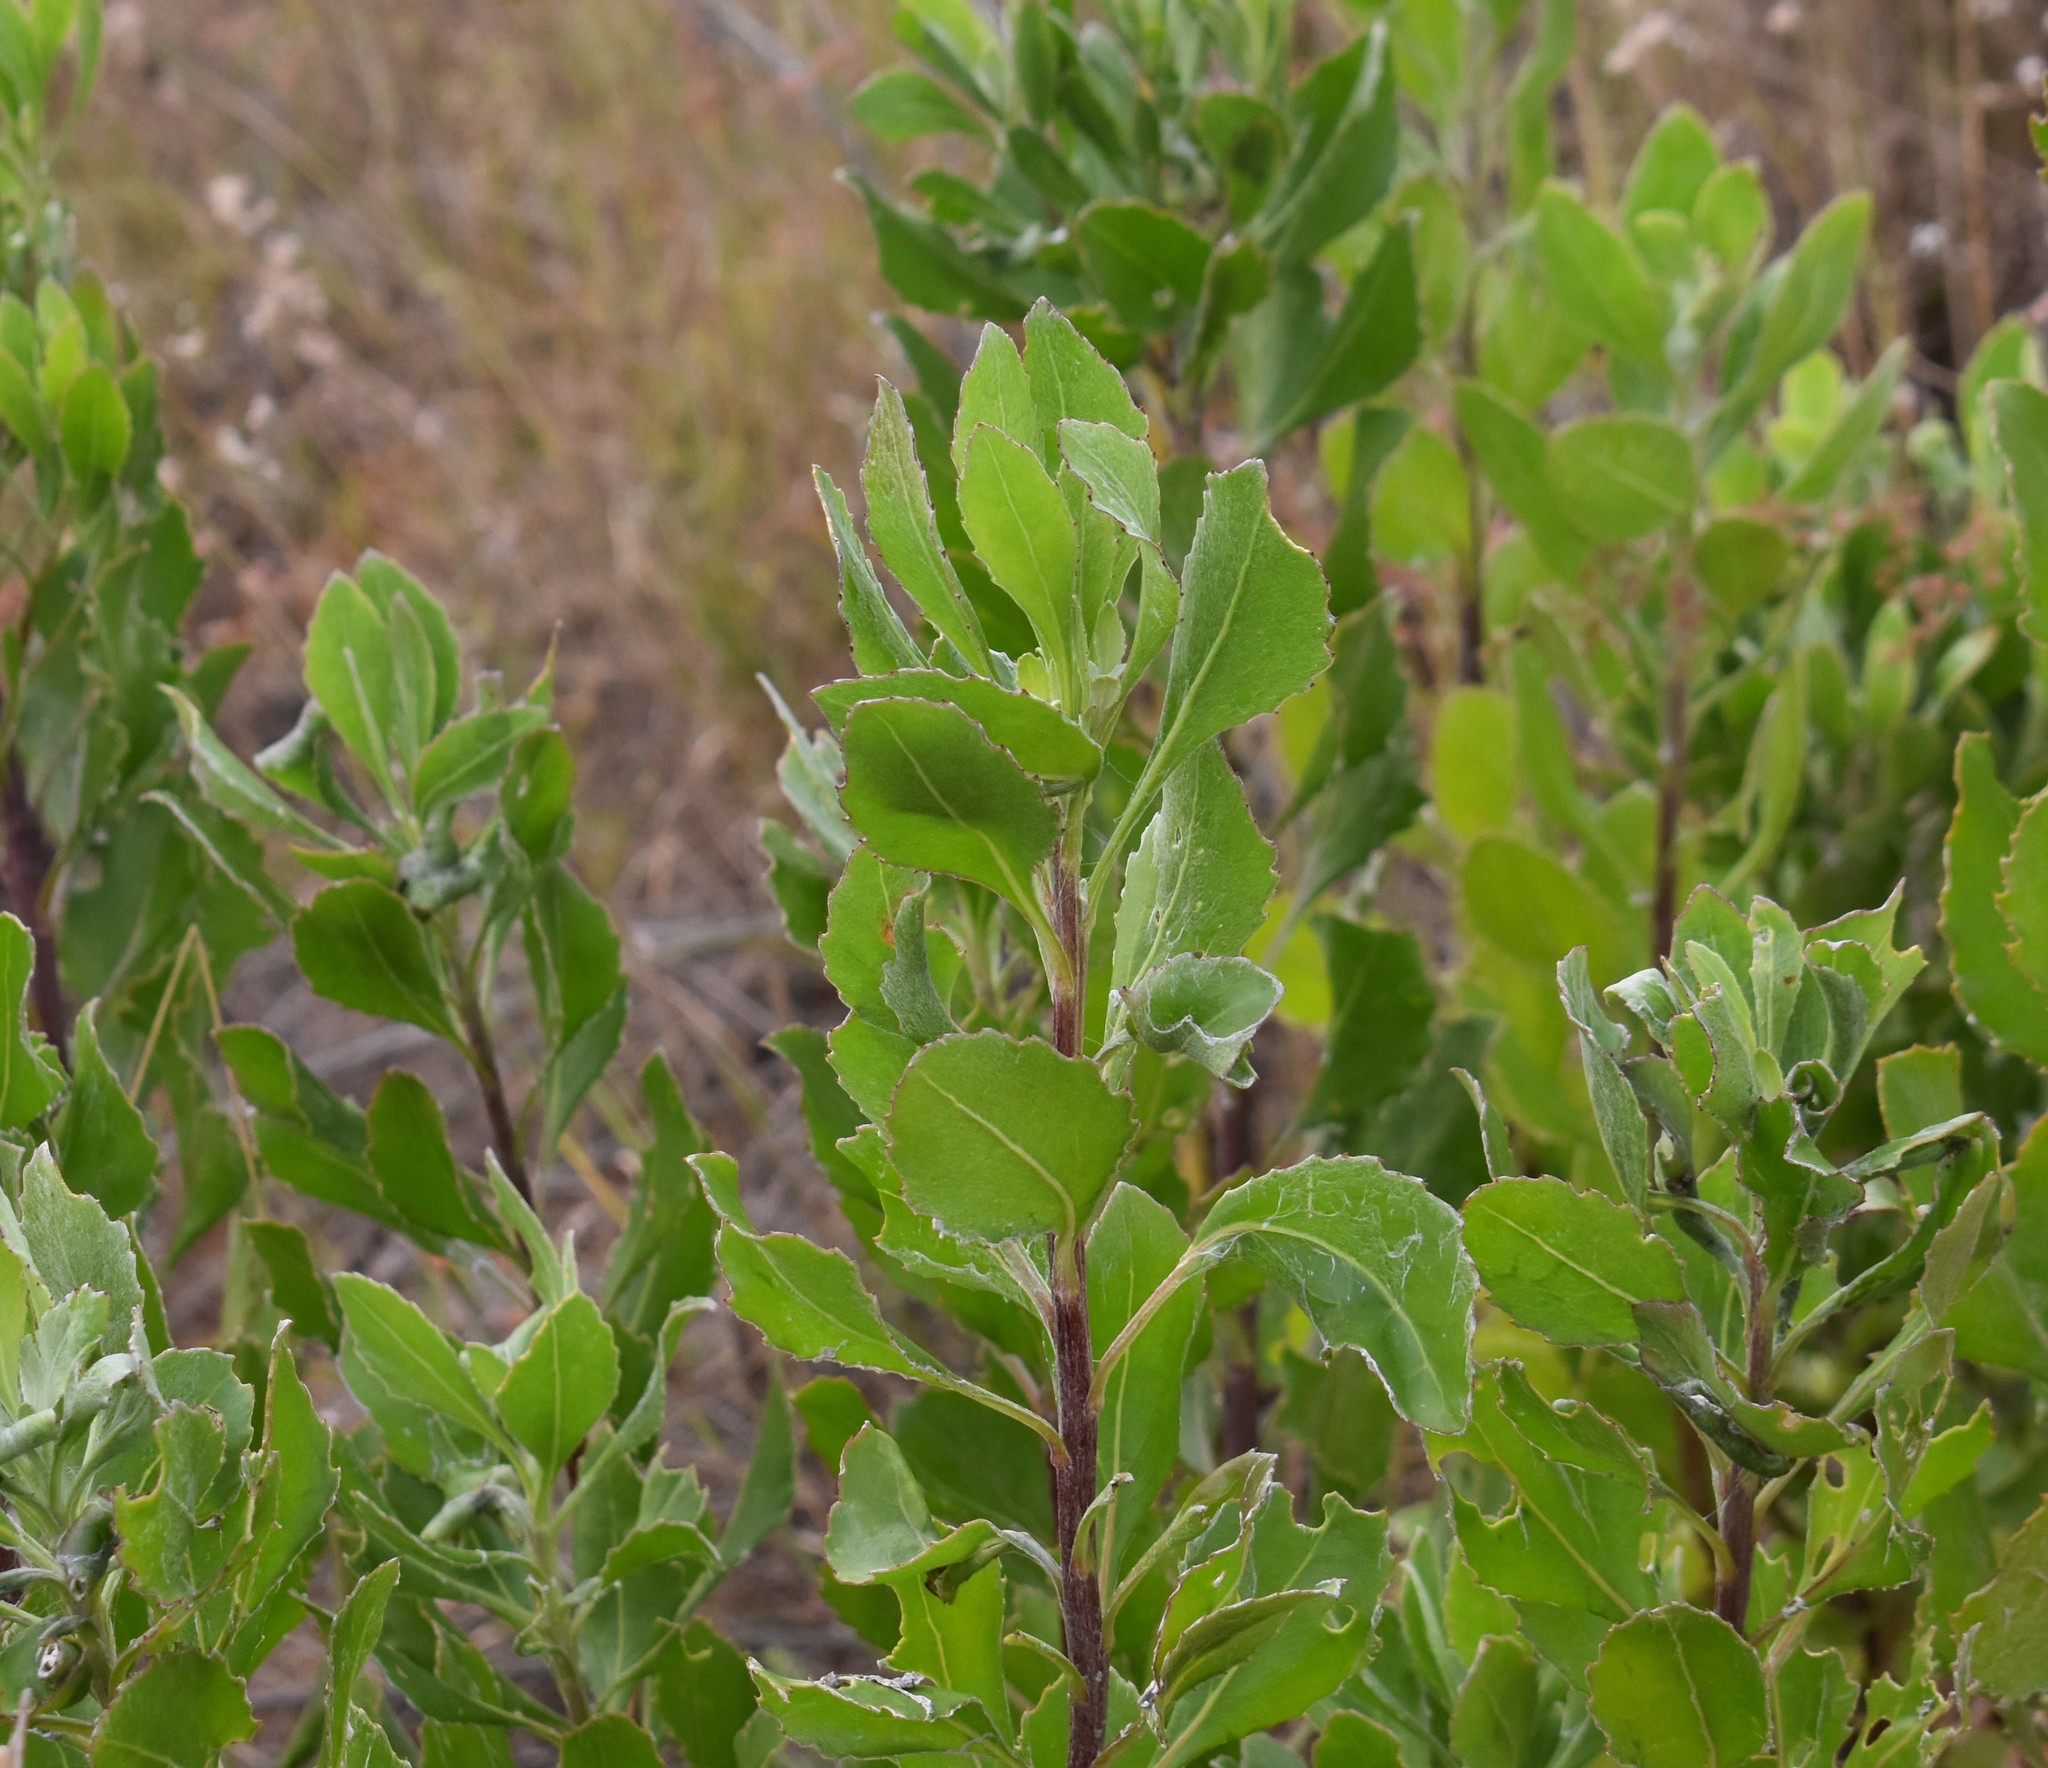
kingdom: Plantae
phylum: Tracheophyta
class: Magnoliopsida
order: Asterales
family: Asteraceae
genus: Osteospermum
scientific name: Osteospermum moniliferum
